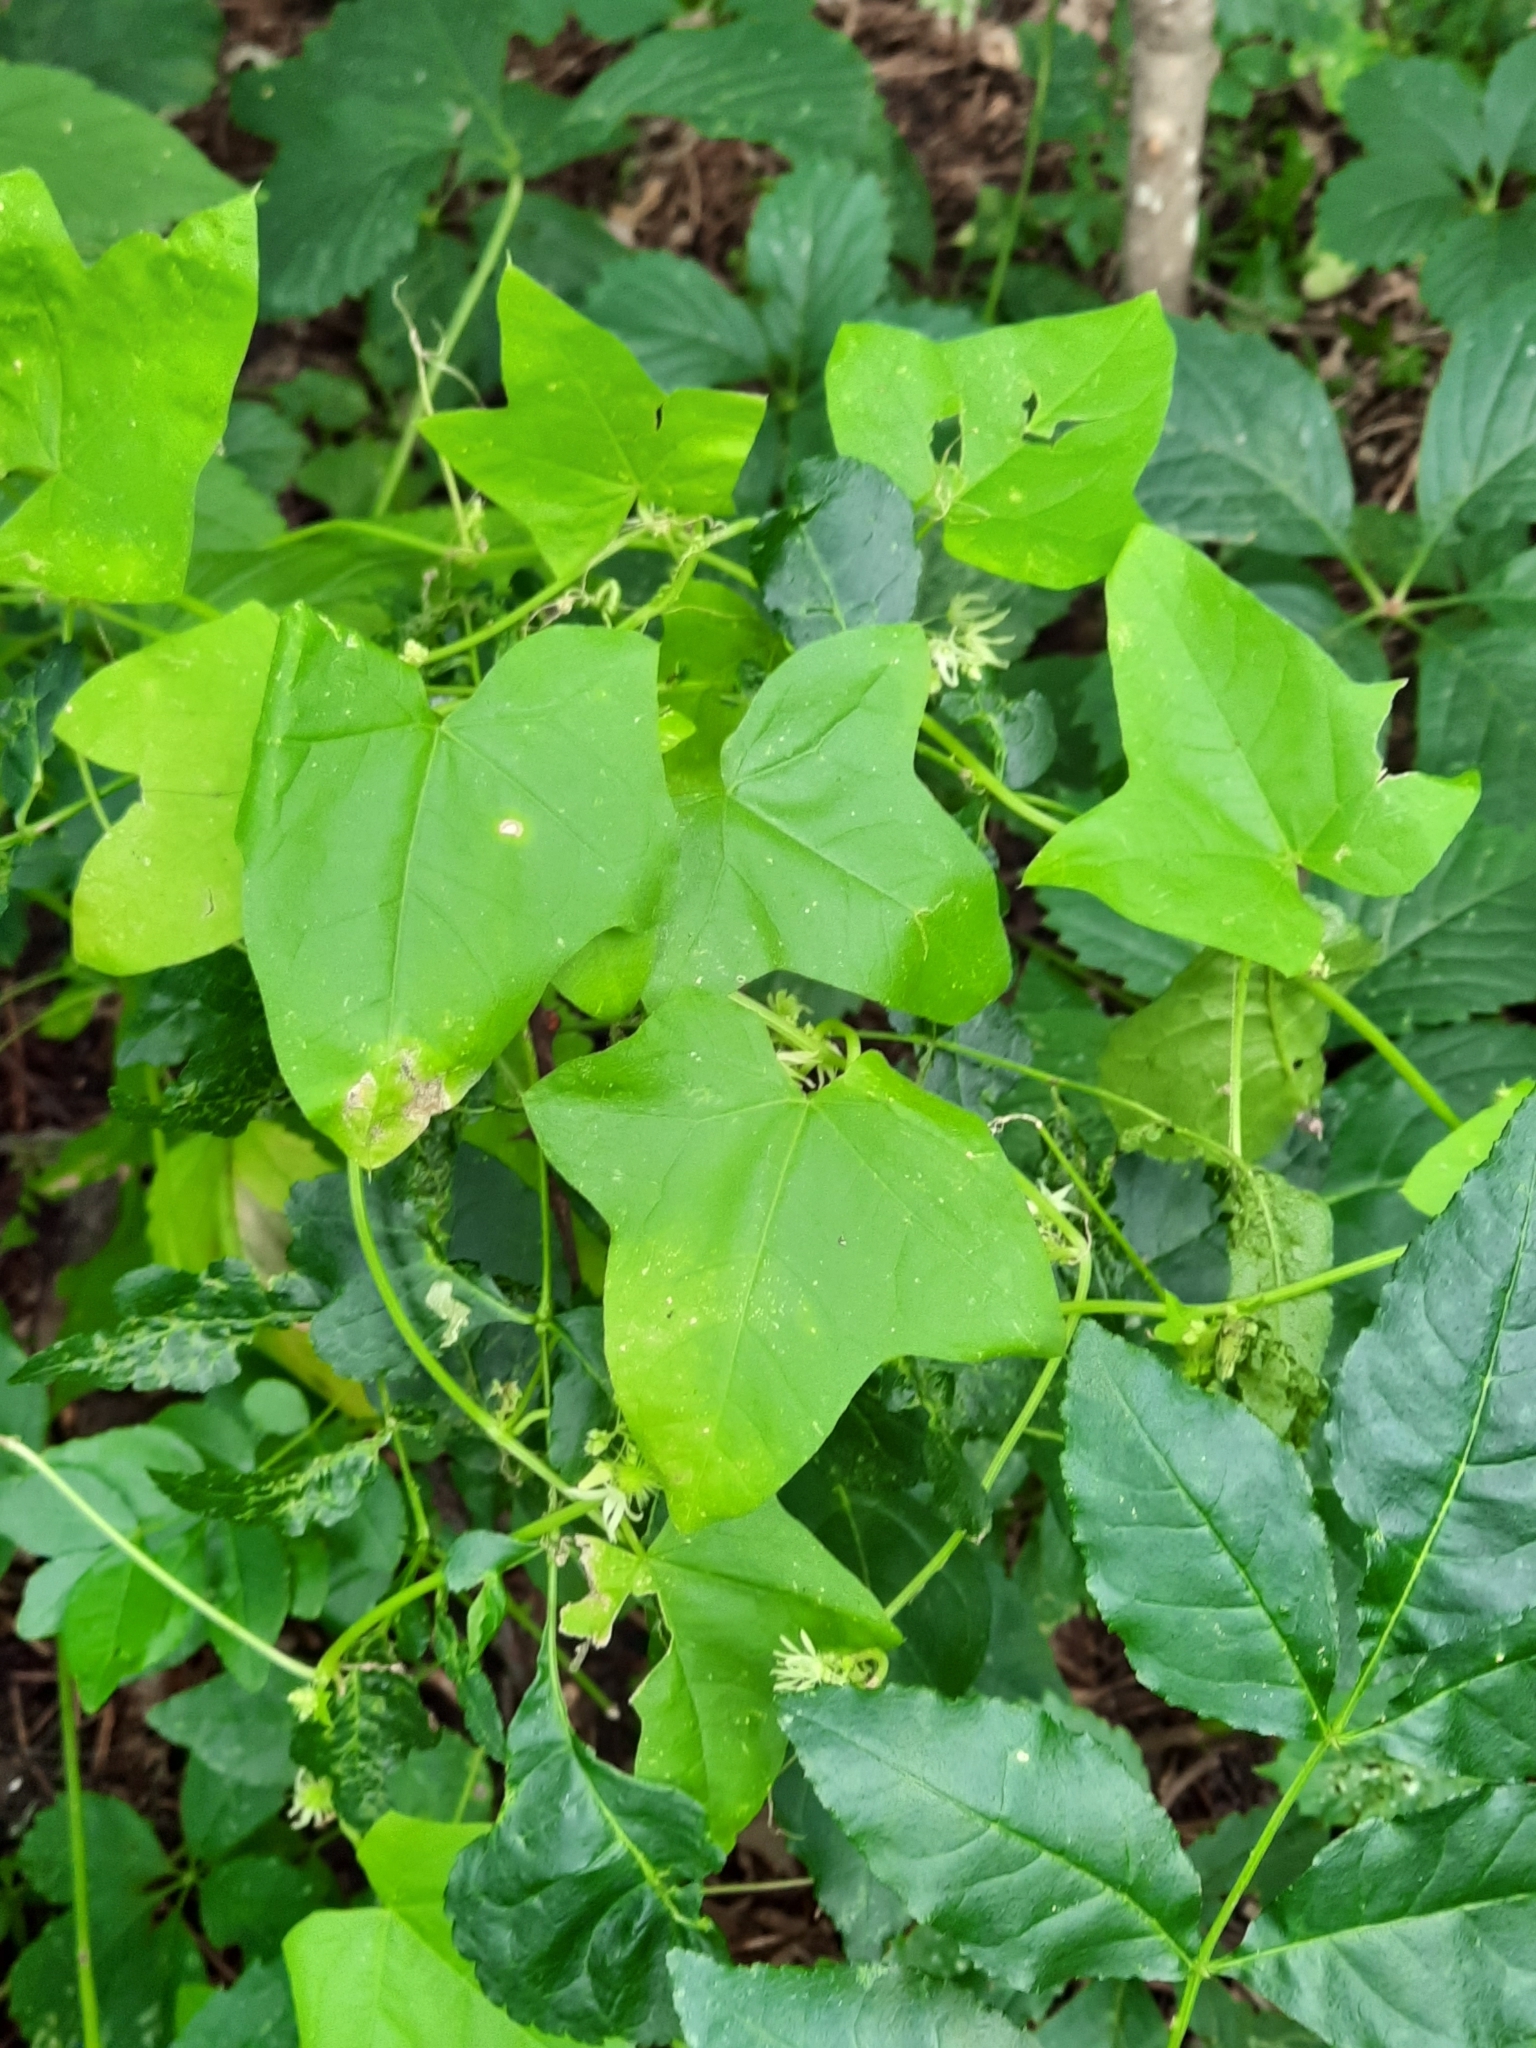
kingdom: Plantae
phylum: Tracheophyta
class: Magnoliopsida
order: Cucurbitales
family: Cucurbitaceae
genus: Echinocystis
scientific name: Echinocystis lobata
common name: Wild cucumber
